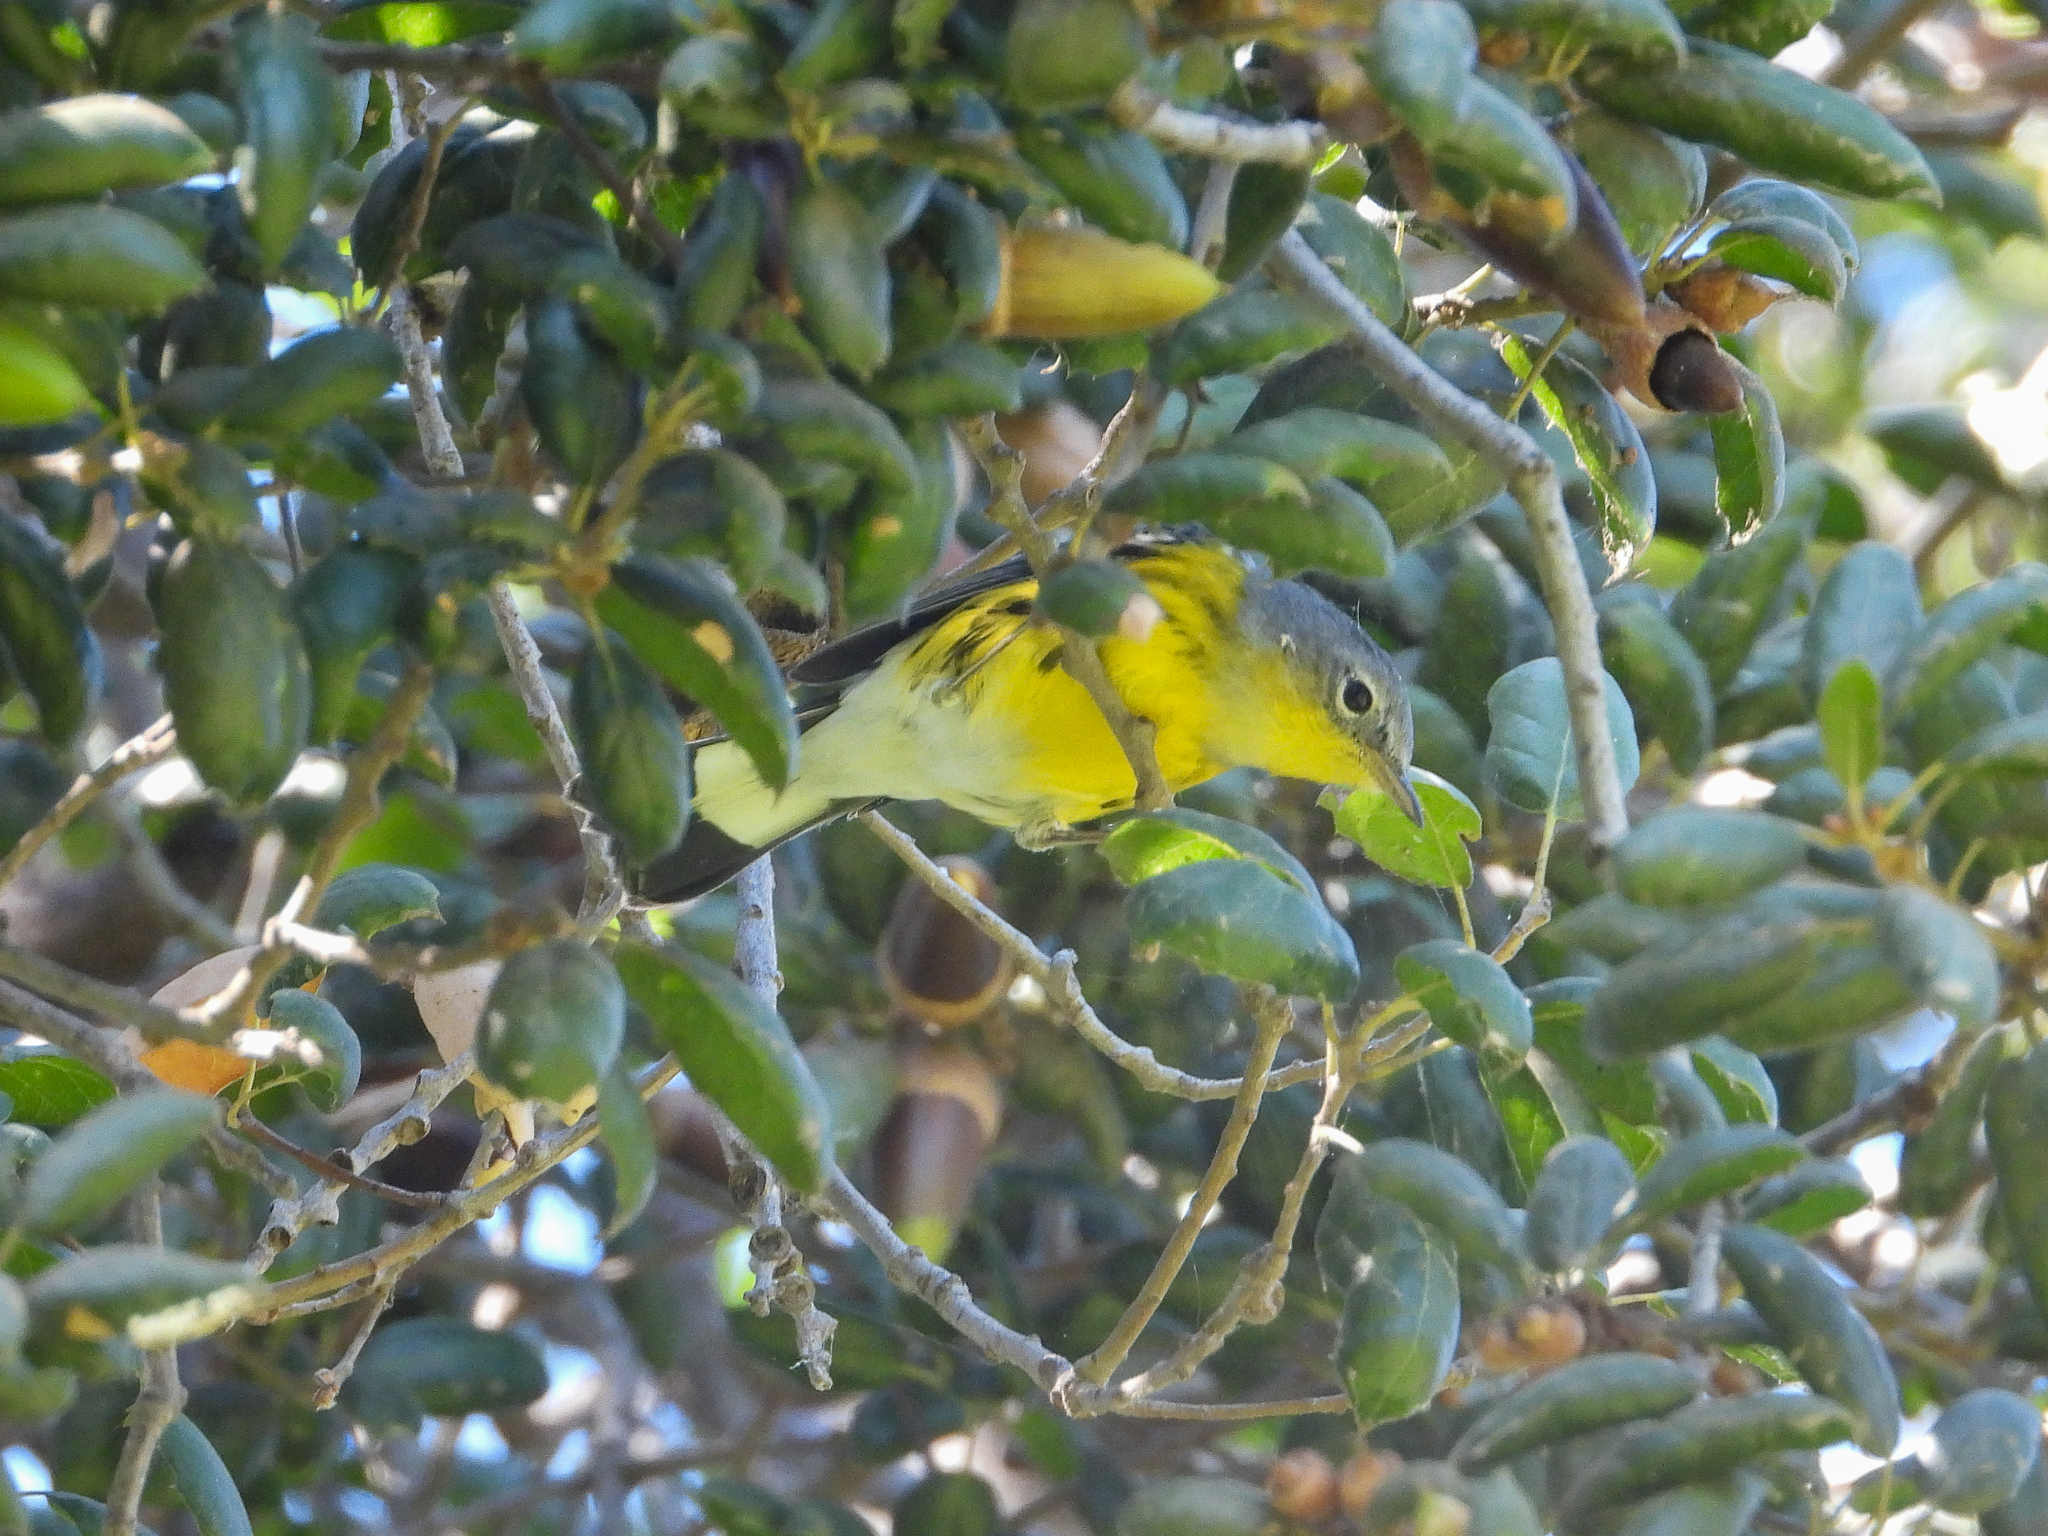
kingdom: Animalia
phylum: Chordata
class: Aves
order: Passeriformes
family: Parulidae
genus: Setophaga
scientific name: Setophaga magnolia
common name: Magnolia warbler
